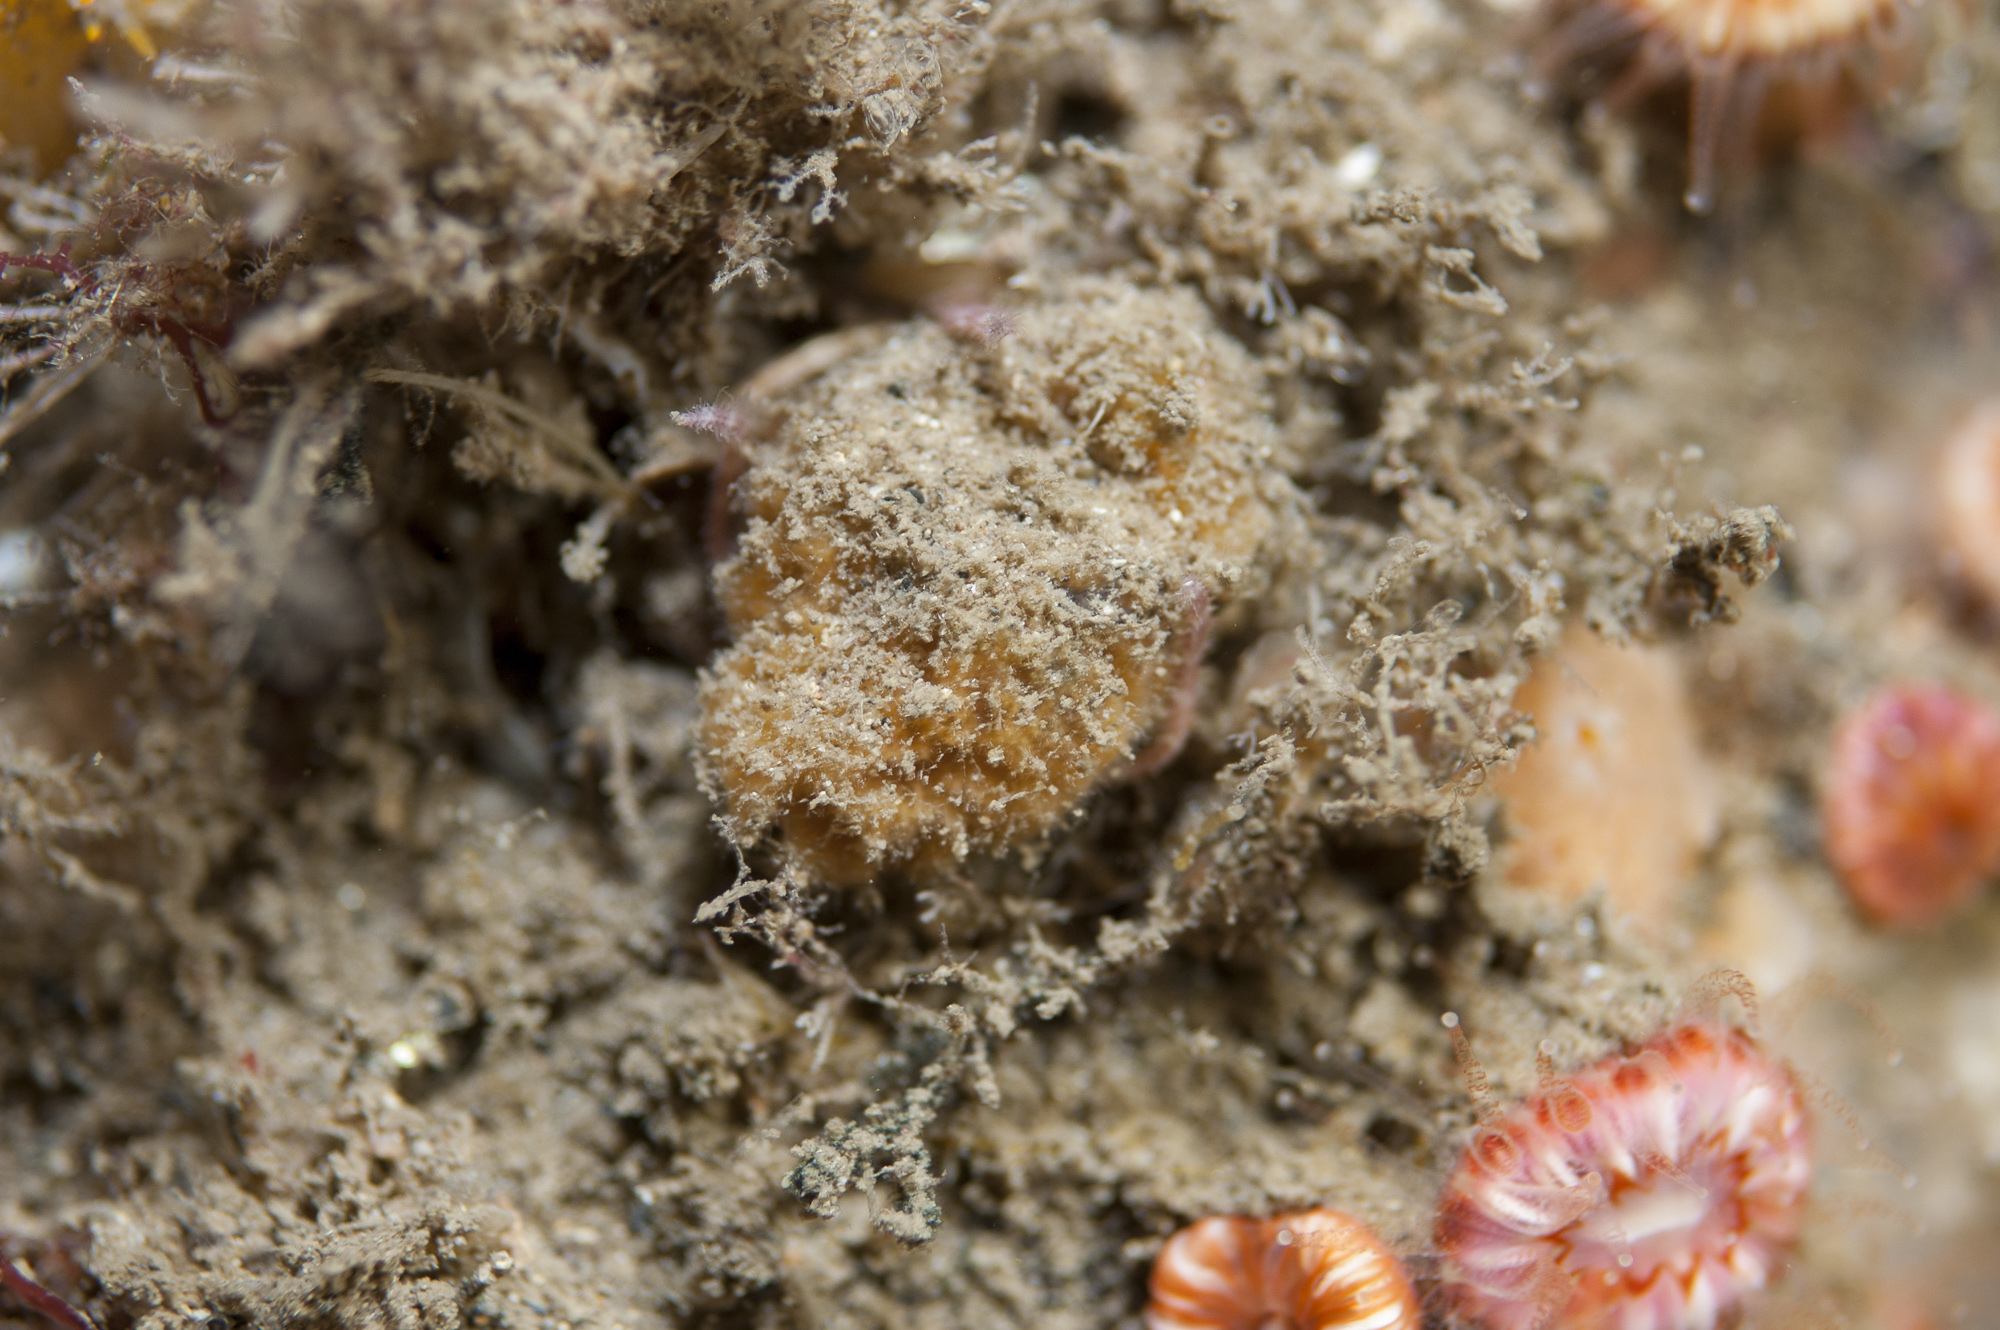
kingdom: Animalia
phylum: Porifera
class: Demospongiae
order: Axinellida
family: Axinellidae
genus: Axinella
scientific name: Axinella parva
